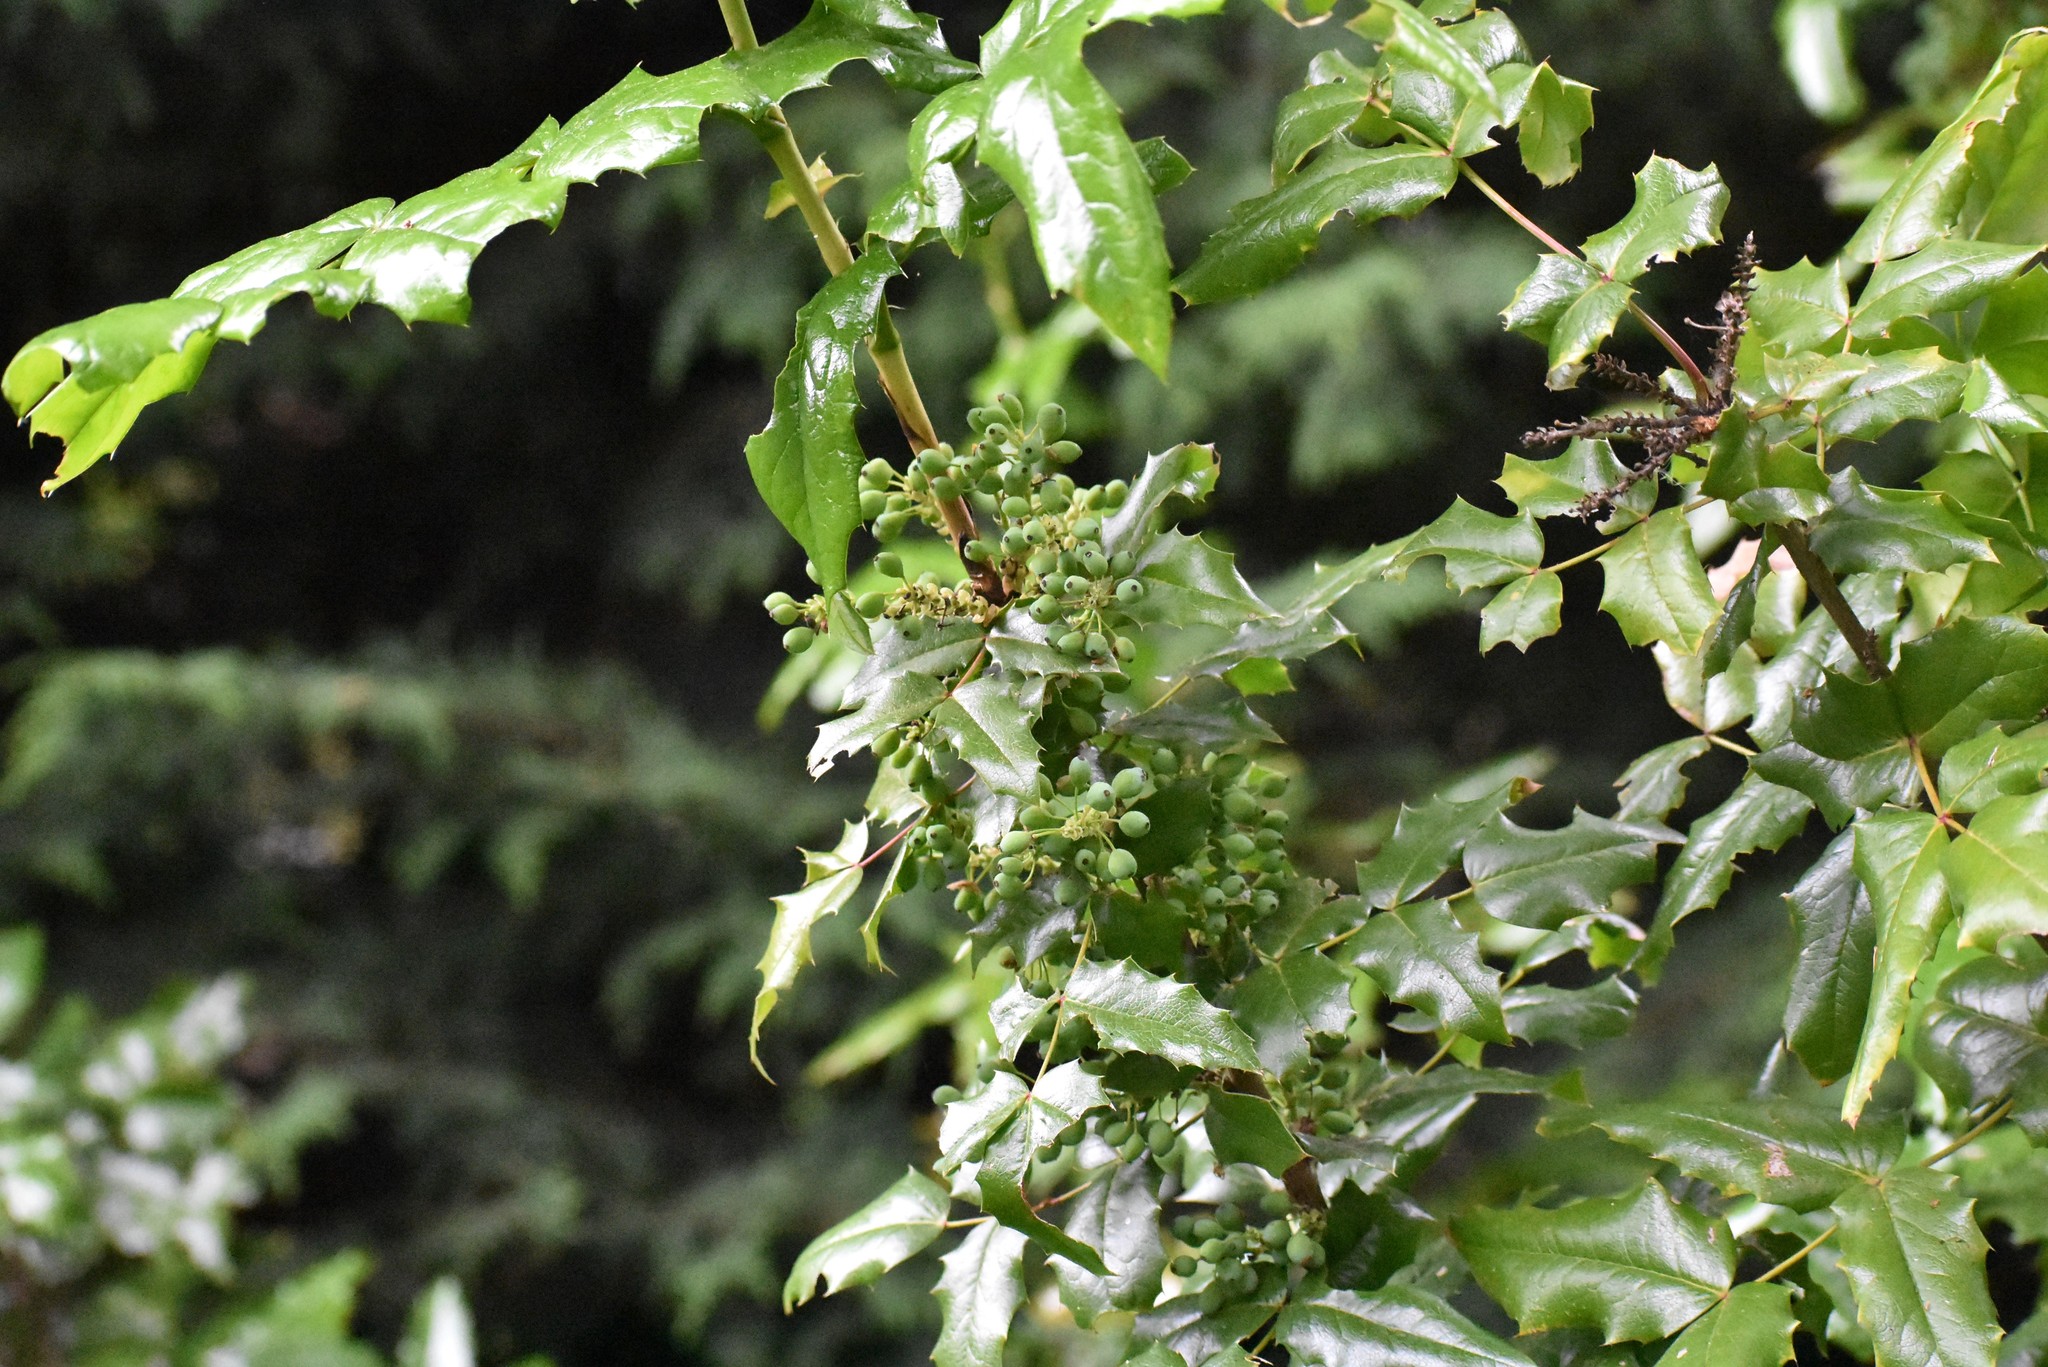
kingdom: Plantae
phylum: Tracheophyta
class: Magnoliopsida
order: Ranunculales
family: Berberidaceae
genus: Mahonia
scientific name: Mahonia aquifolium
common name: Oregon-grape
